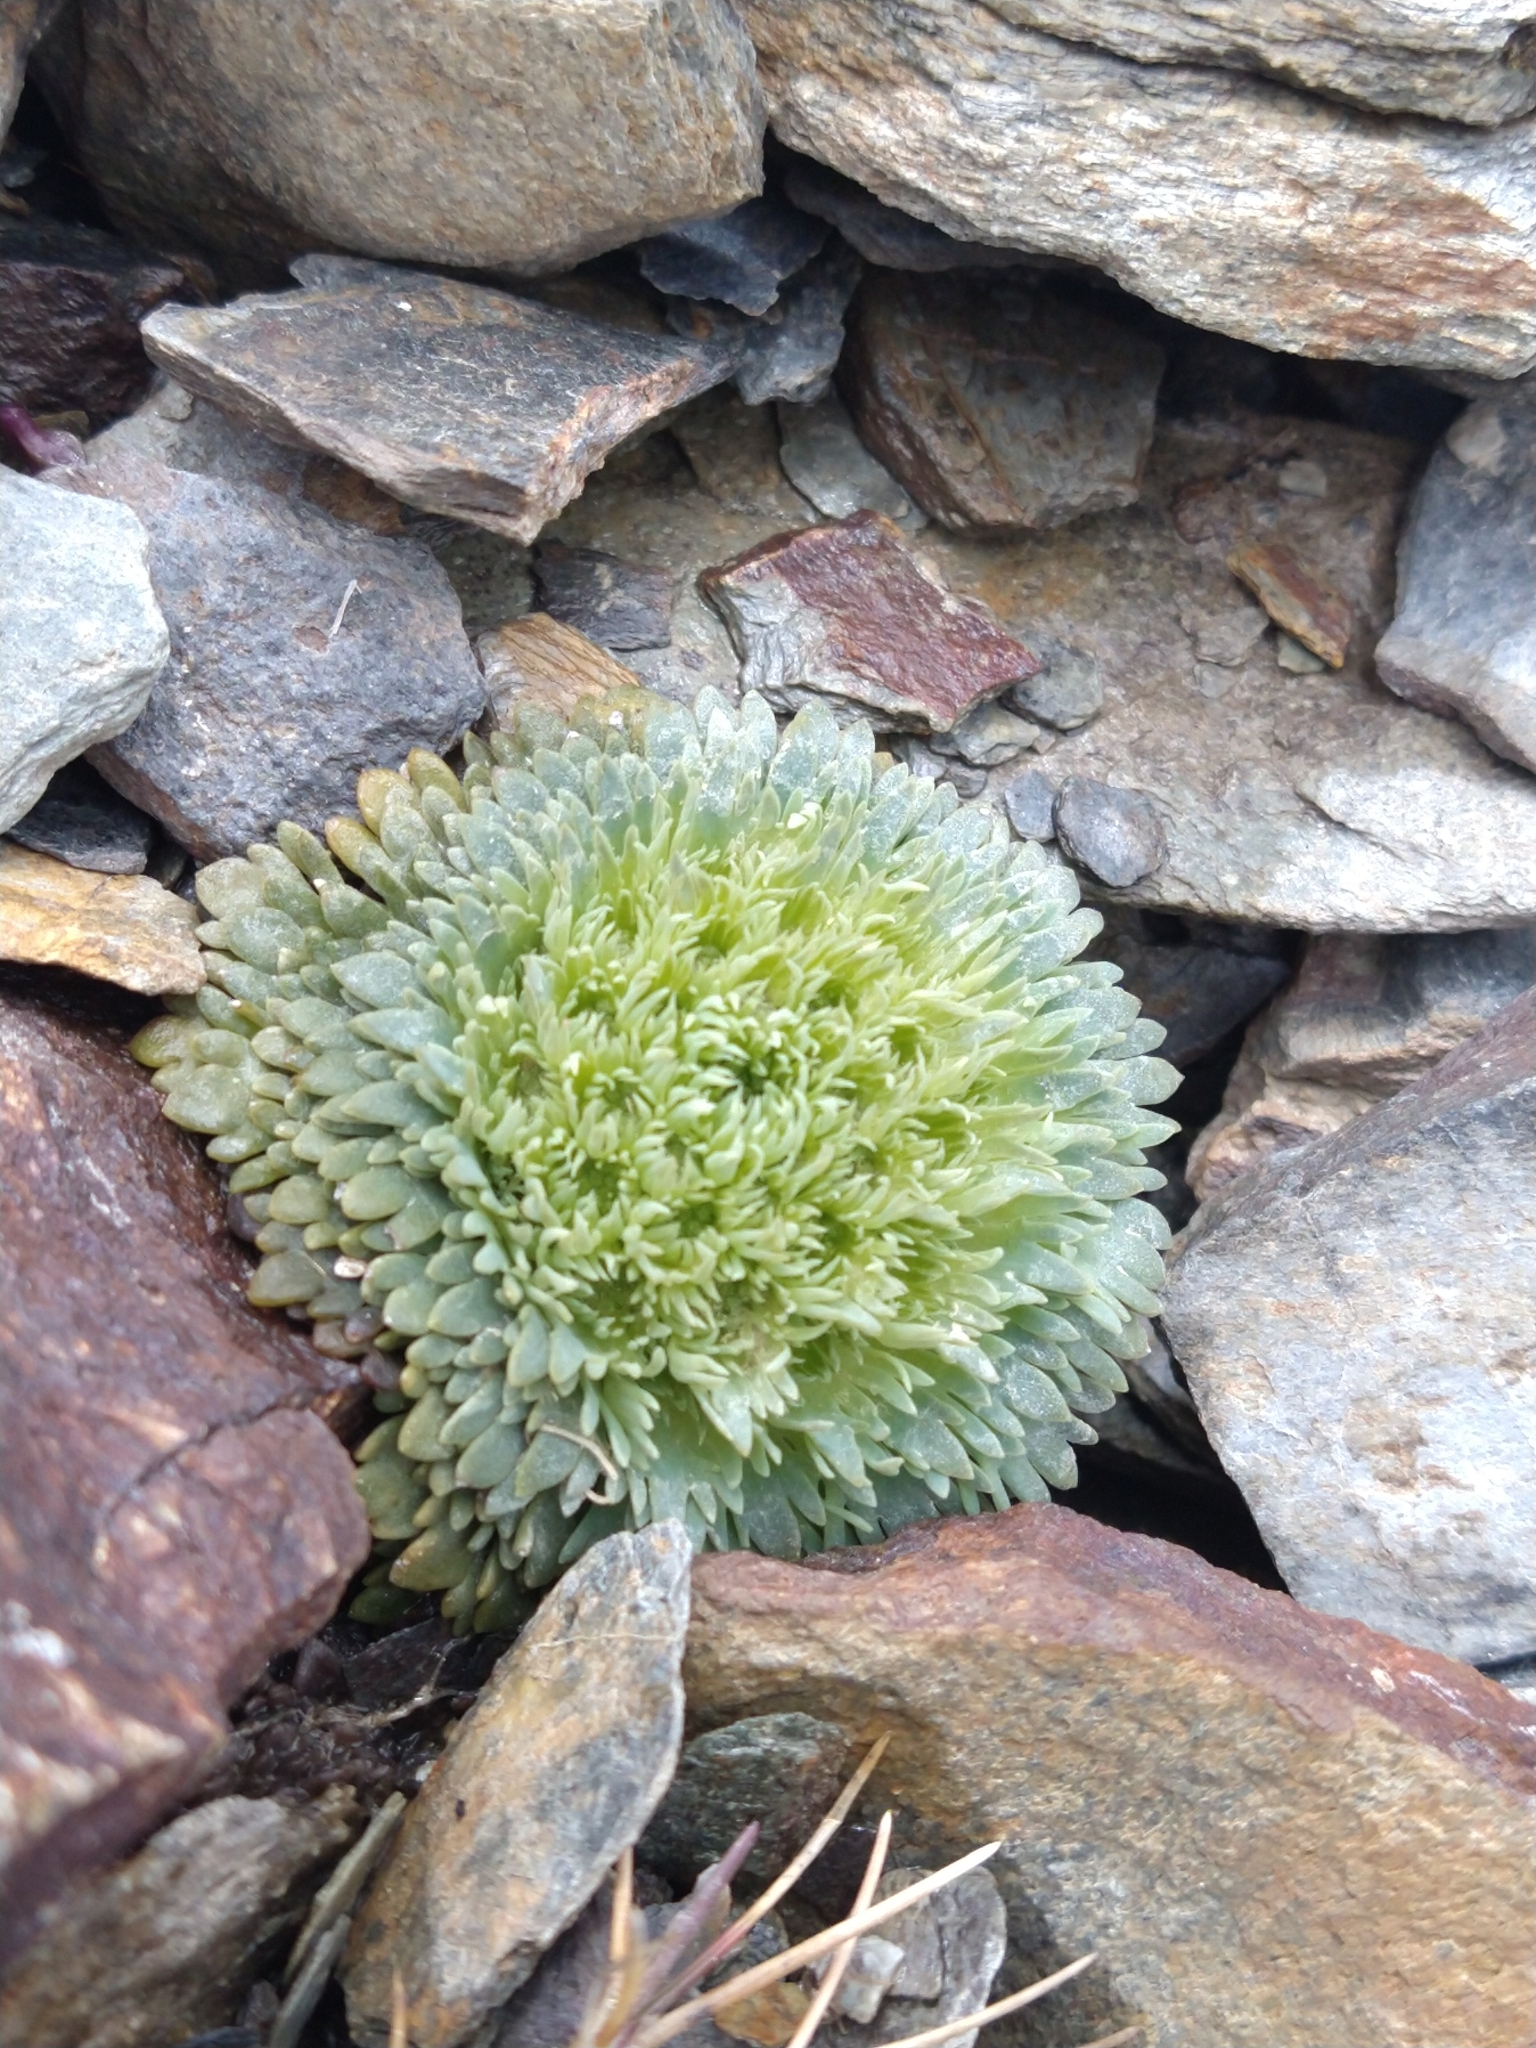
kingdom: Plantae
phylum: Tracheophyta
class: Magnoliopsida
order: Asterales
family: Calyceraceae
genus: Moschopsis
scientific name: Moschopsis rosulata
